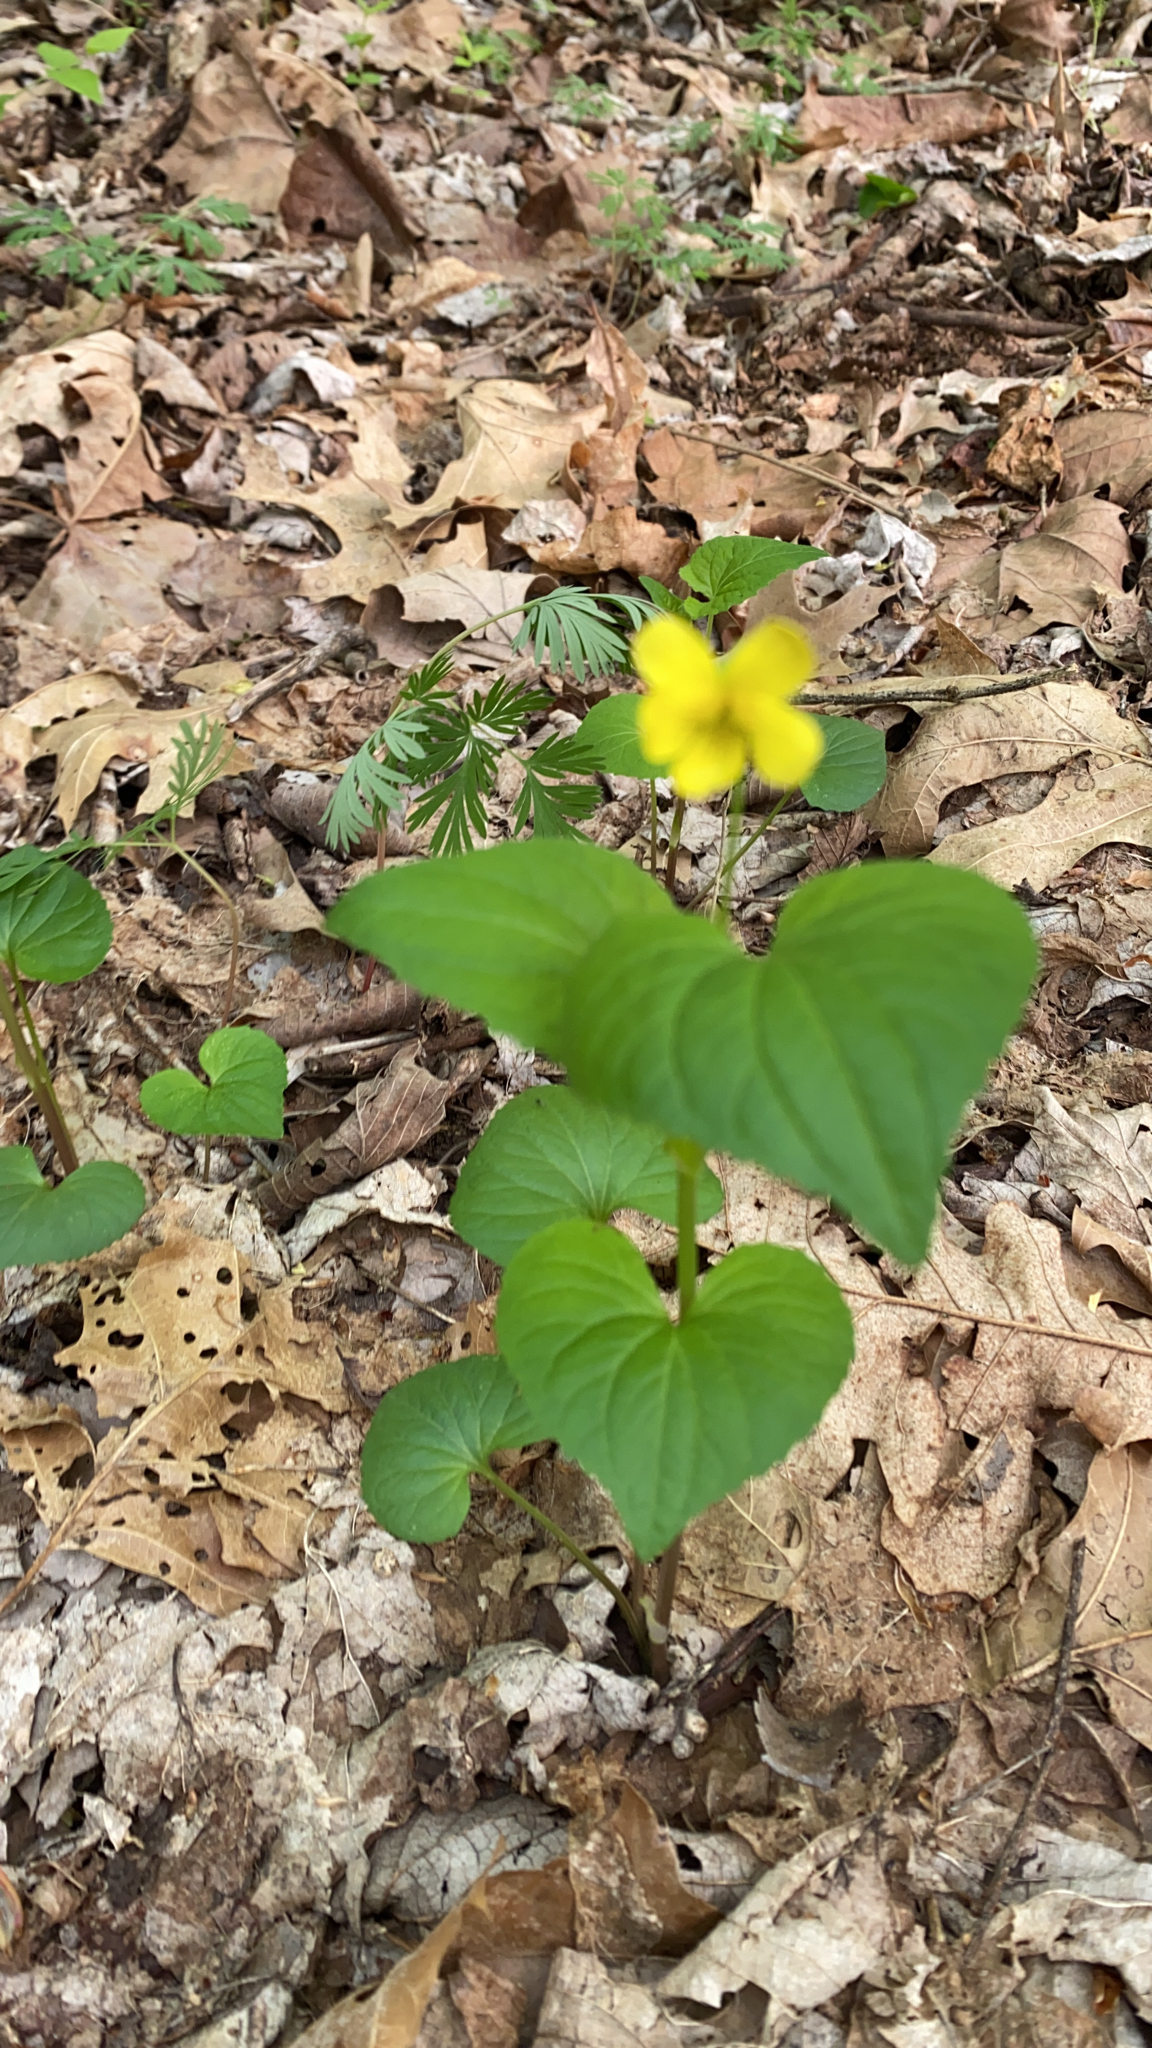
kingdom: Plantae
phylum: Tracheophyta
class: Magnoliopsida
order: Malpighiales
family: Violaceae
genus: Viola
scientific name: Viola eriocarpa
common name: Smooth yellow violet
